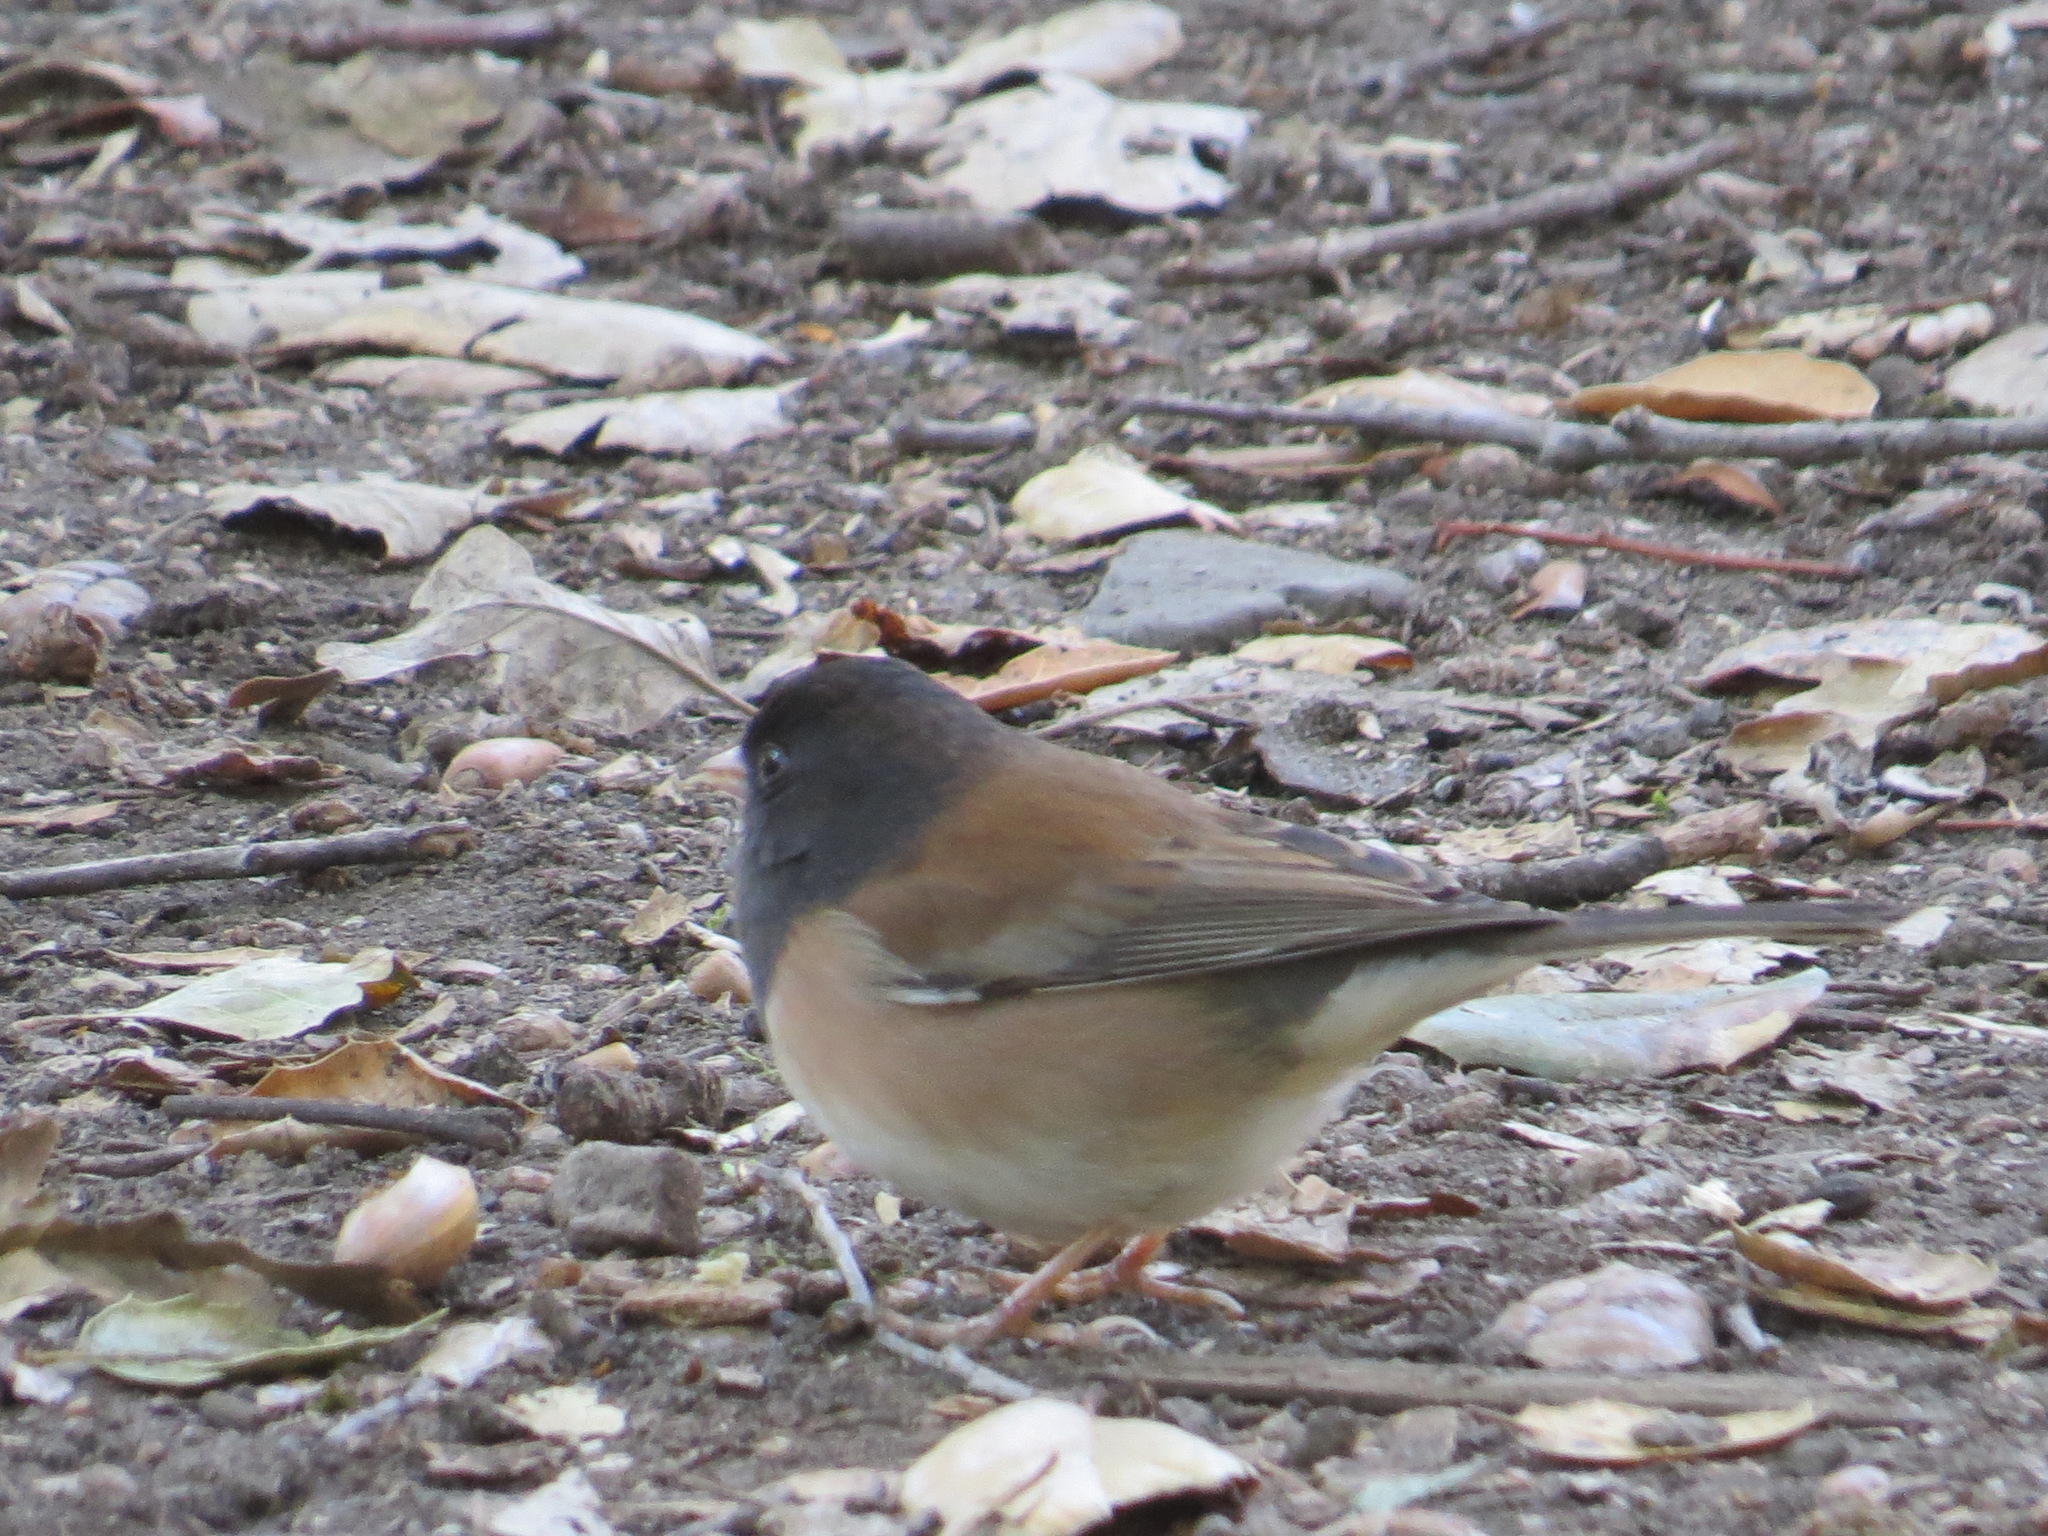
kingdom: Animalia
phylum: Chordata
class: Aves
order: Passeriformes
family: Passerellidae
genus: Junco
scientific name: Junco hyemalis
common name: Dark-eyed junco
